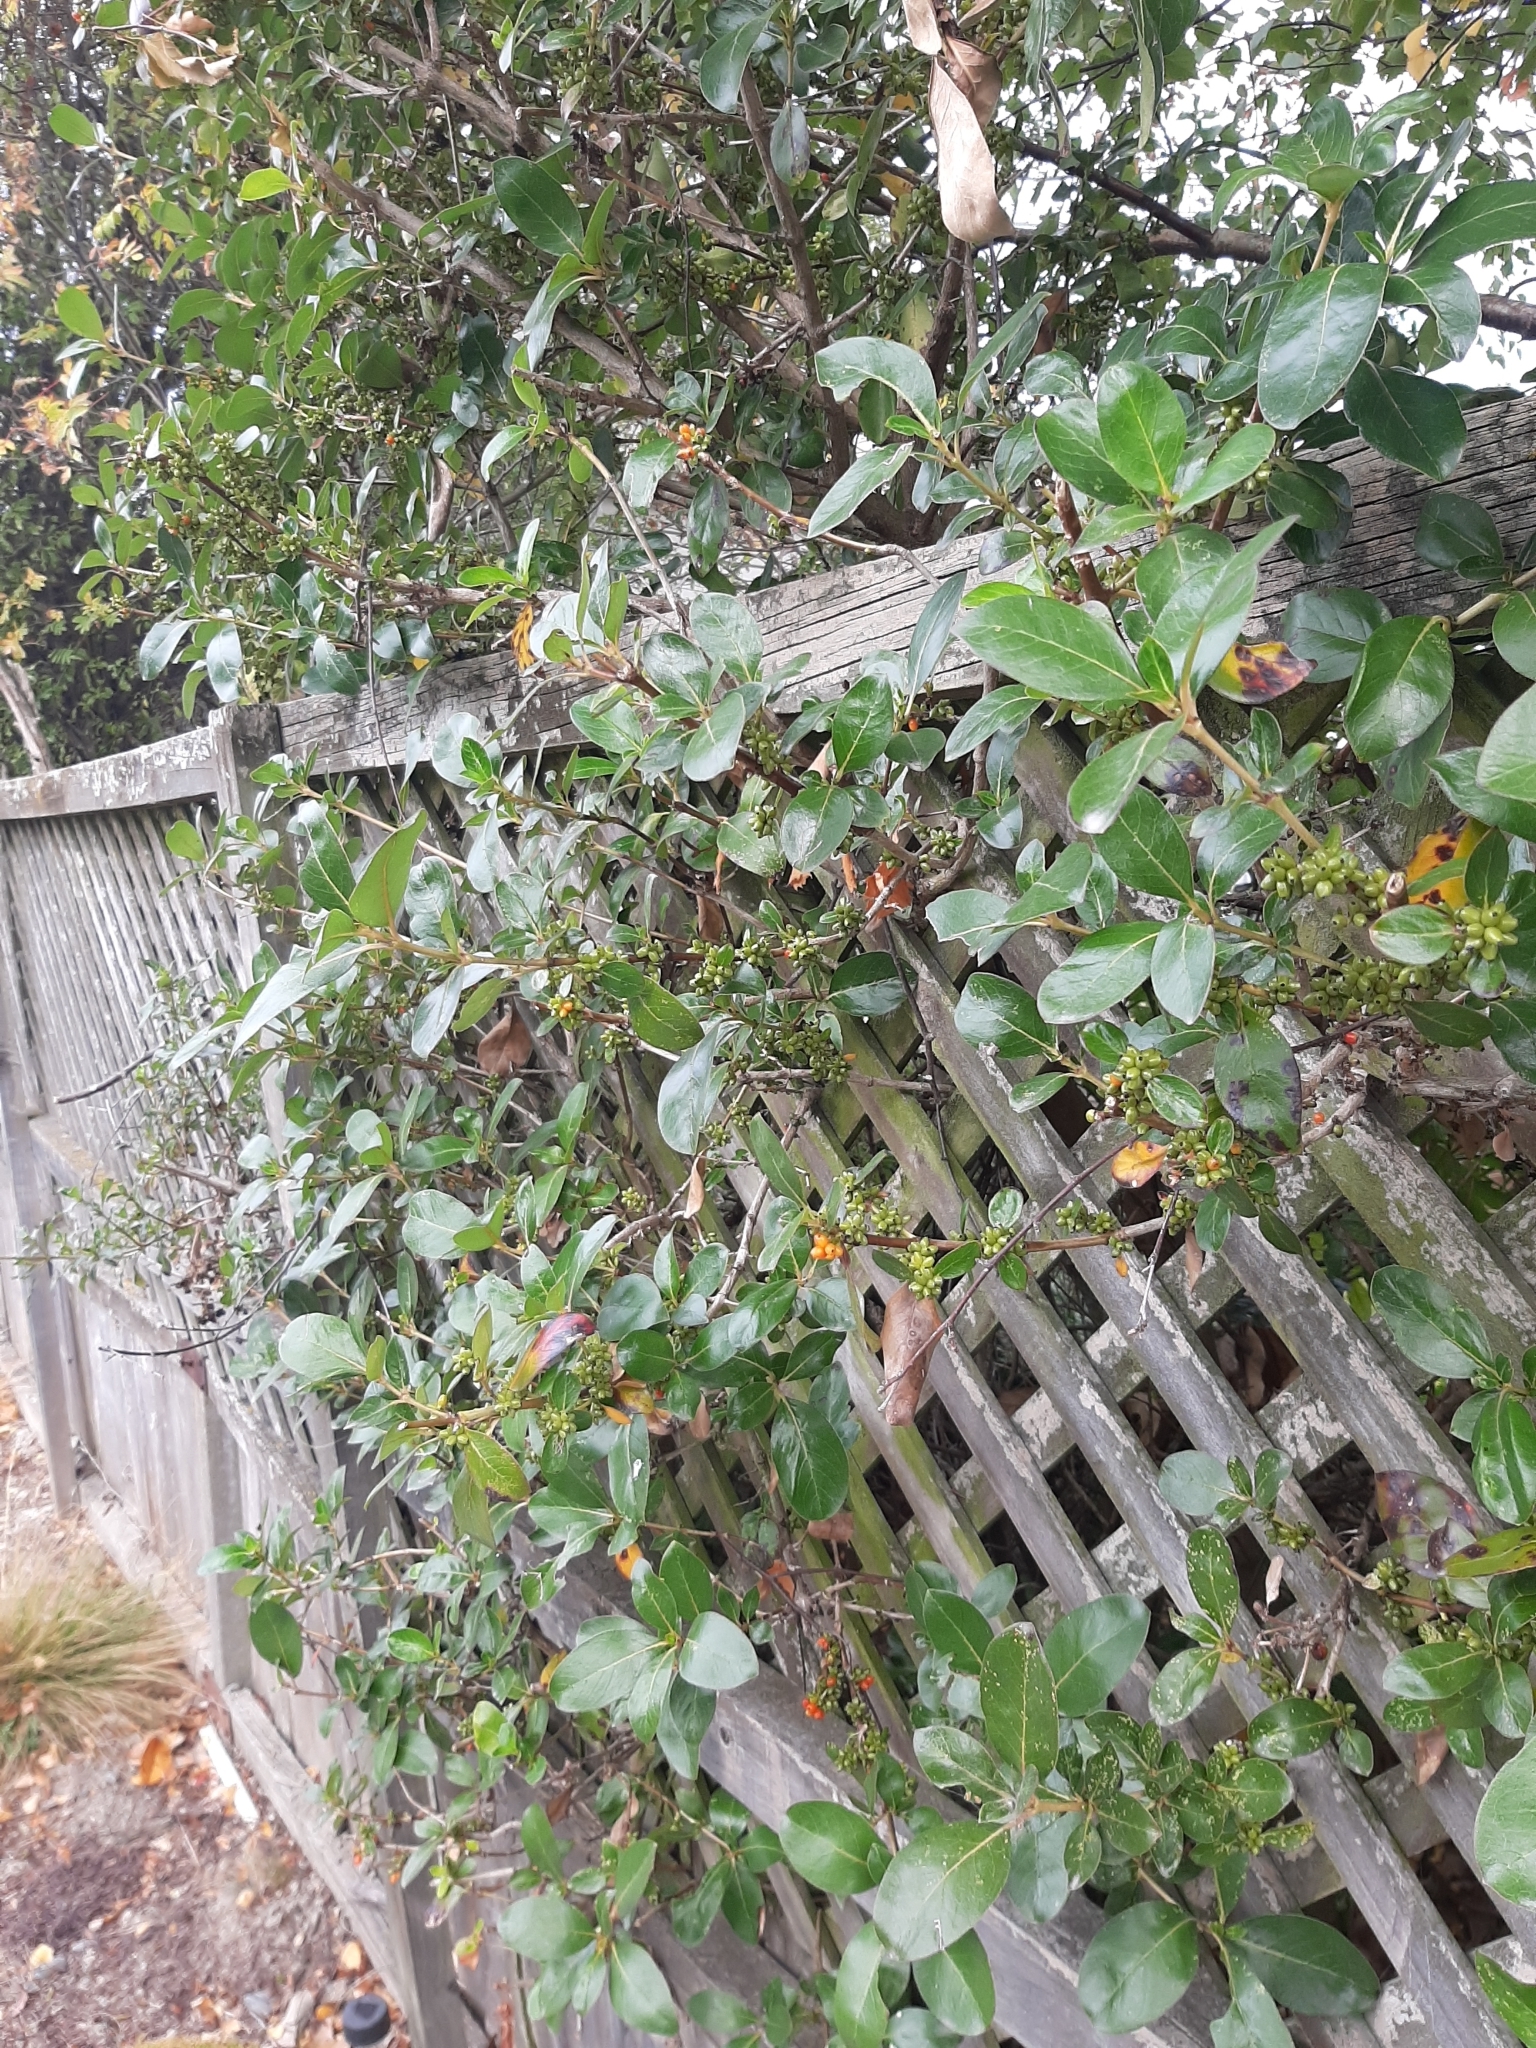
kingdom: Plantae
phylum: Tracheophyta
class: Magnoliopsida
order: Gentianales
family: Rubiaceae
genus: Coprosma
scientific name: Coprosma robusta
